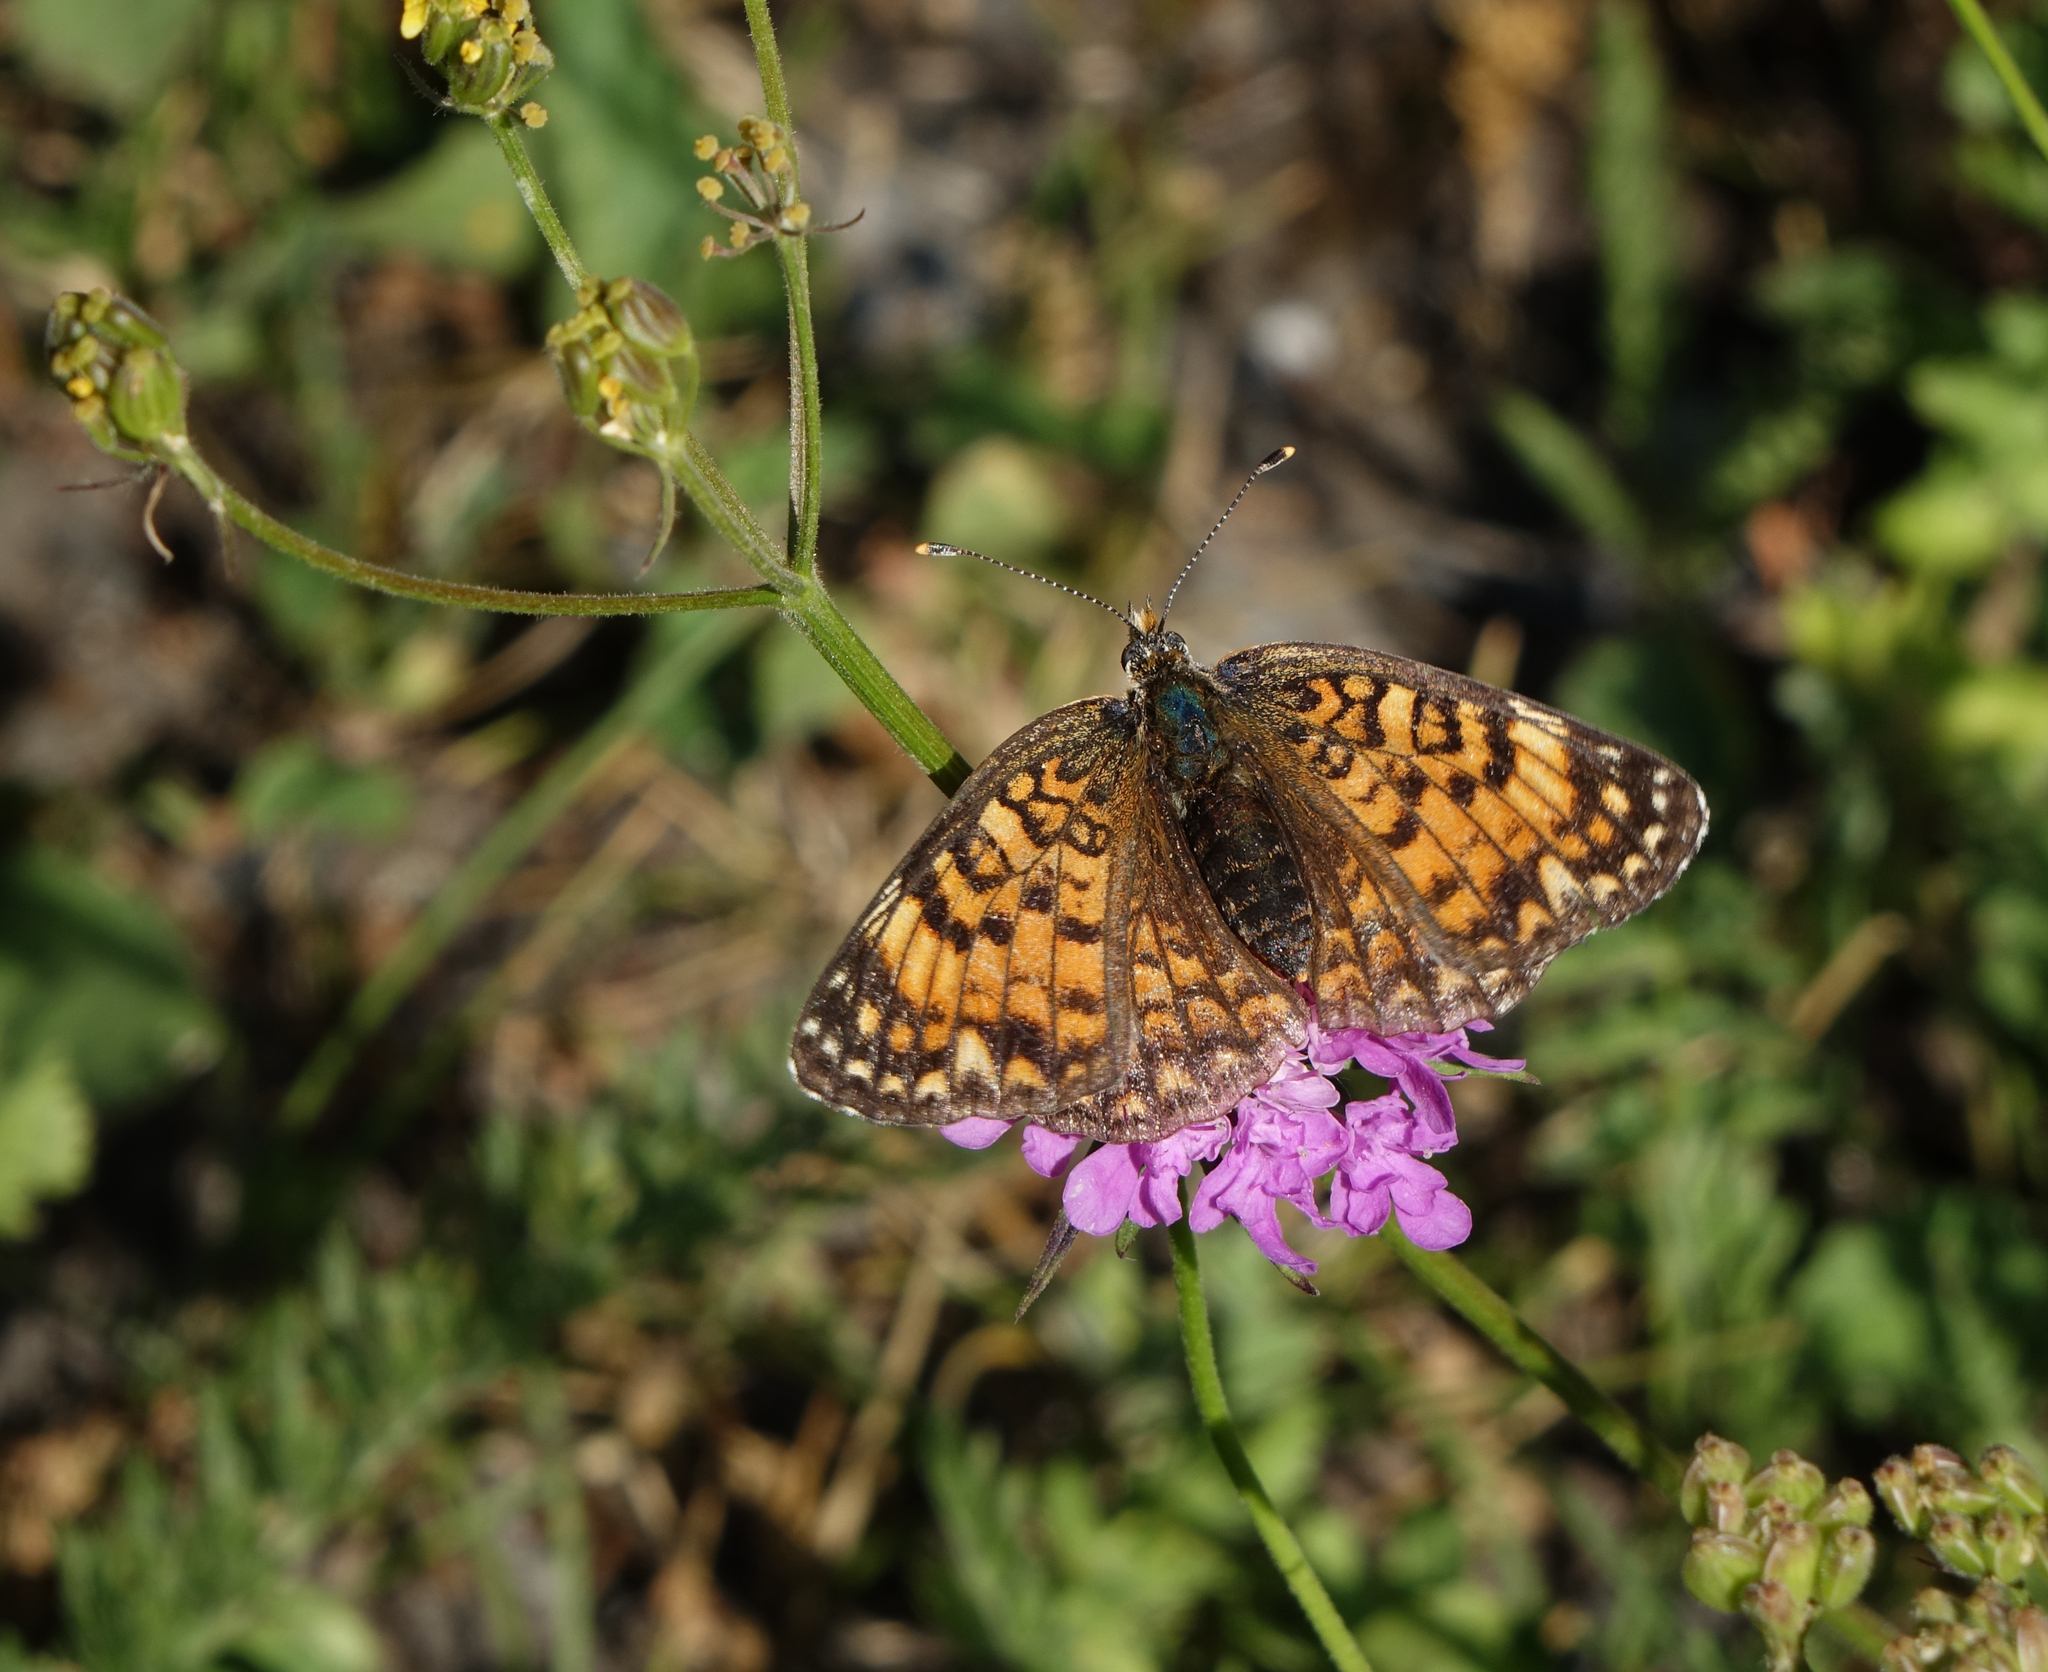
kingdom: Animalia
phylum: Arthropoda
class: Insecta
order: Lepidoptera
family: Nymphalidae
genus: Melitaea
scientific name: Melitaea phoebe
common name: Knapweed fritillary
